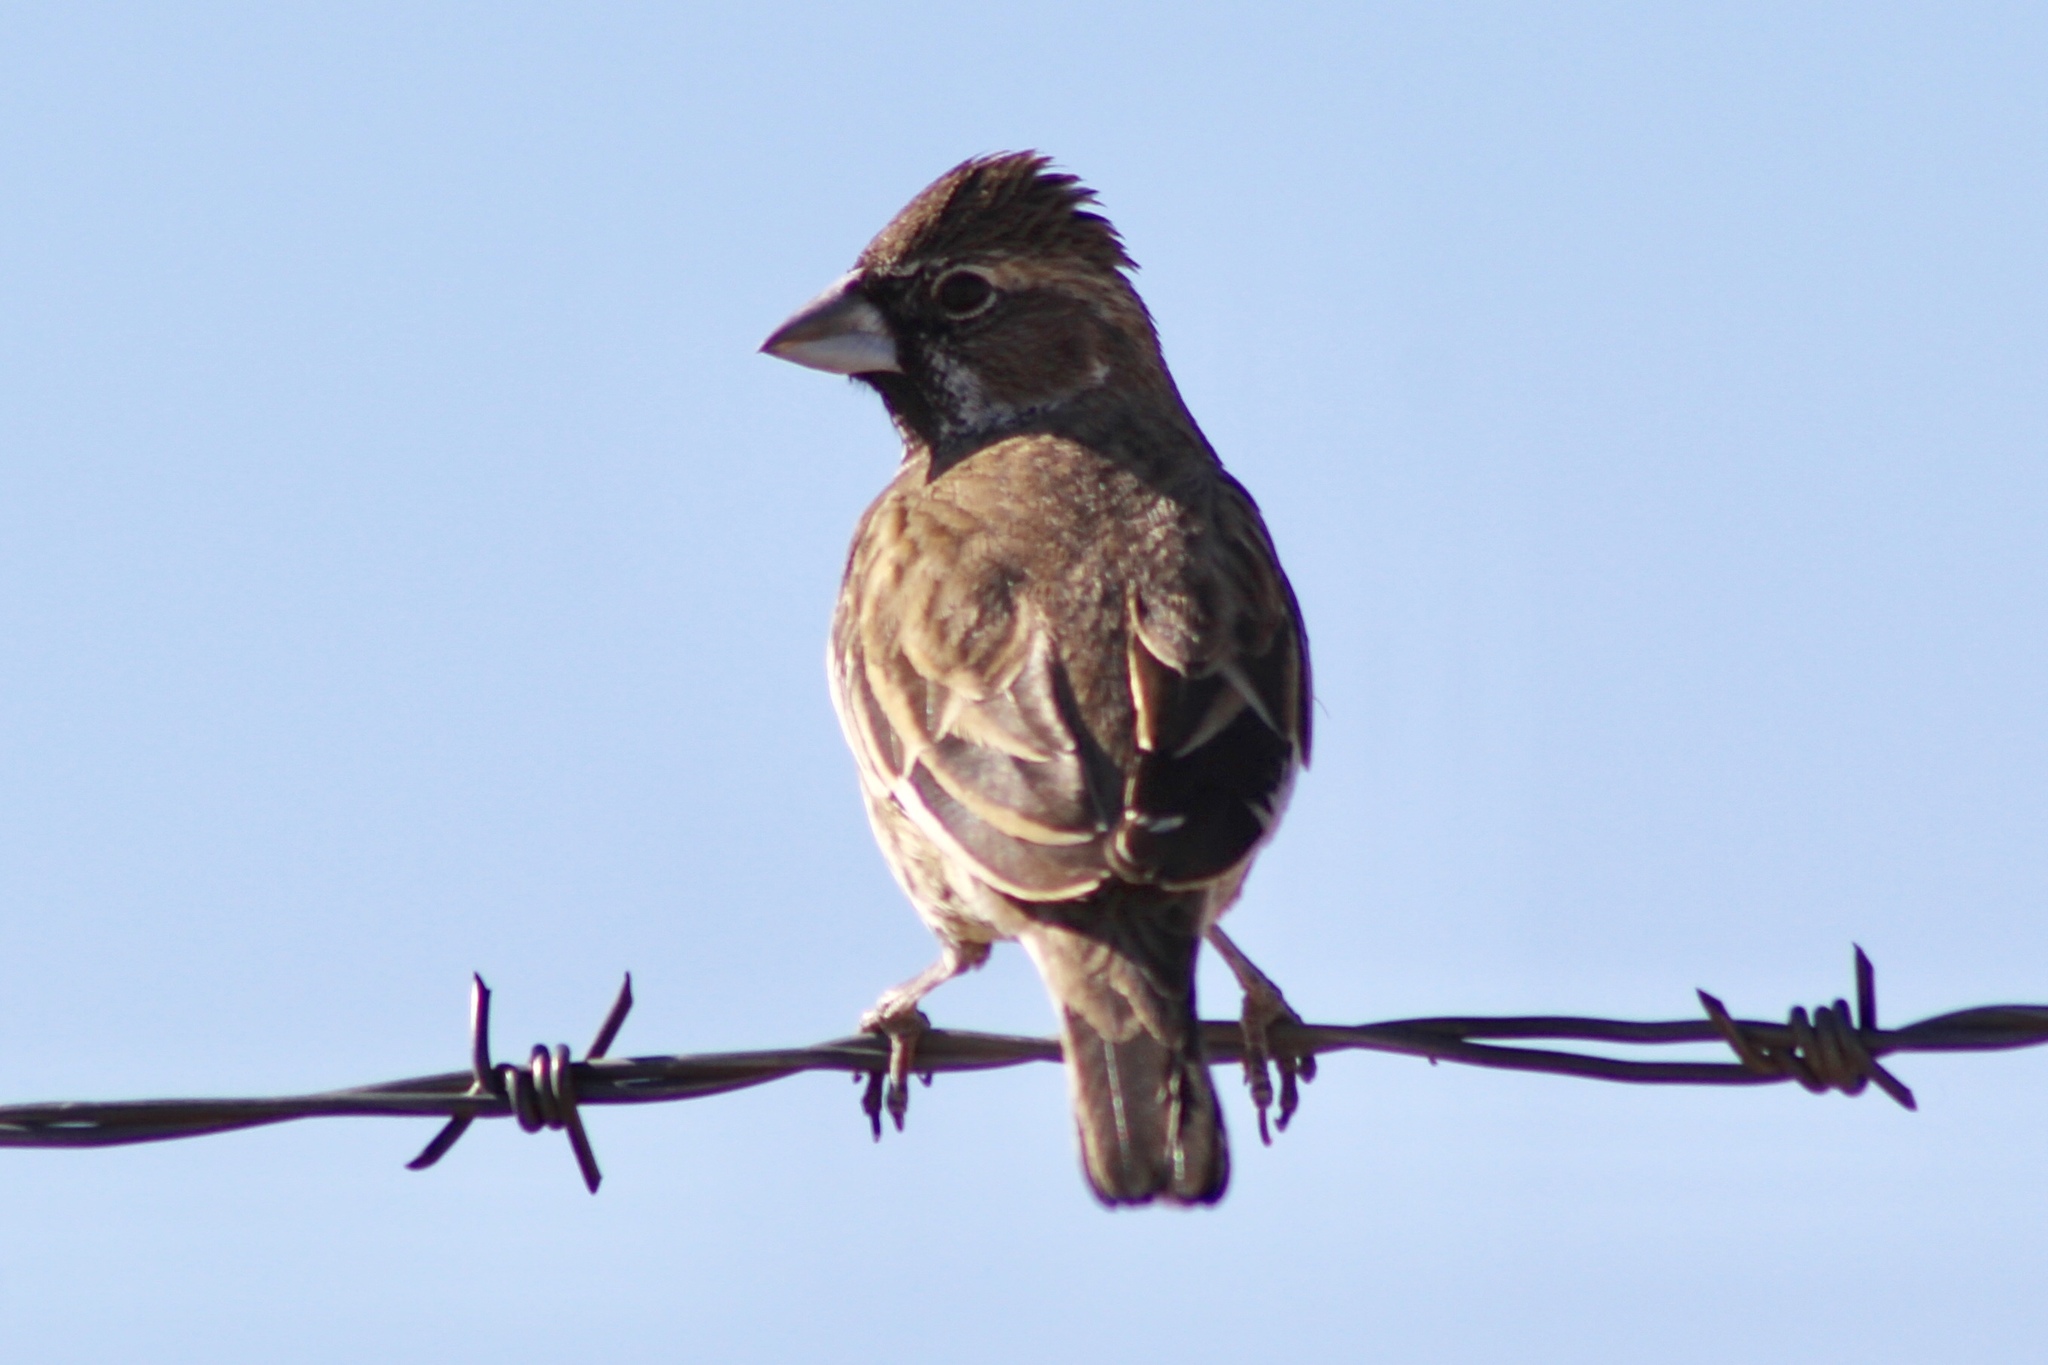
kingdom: Animalia
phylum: Chordata
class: Aves
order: Passeriformes
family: Passerellidae
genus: Calamospiza
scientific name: Calamospiza melanocorys
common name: Lark bunting
